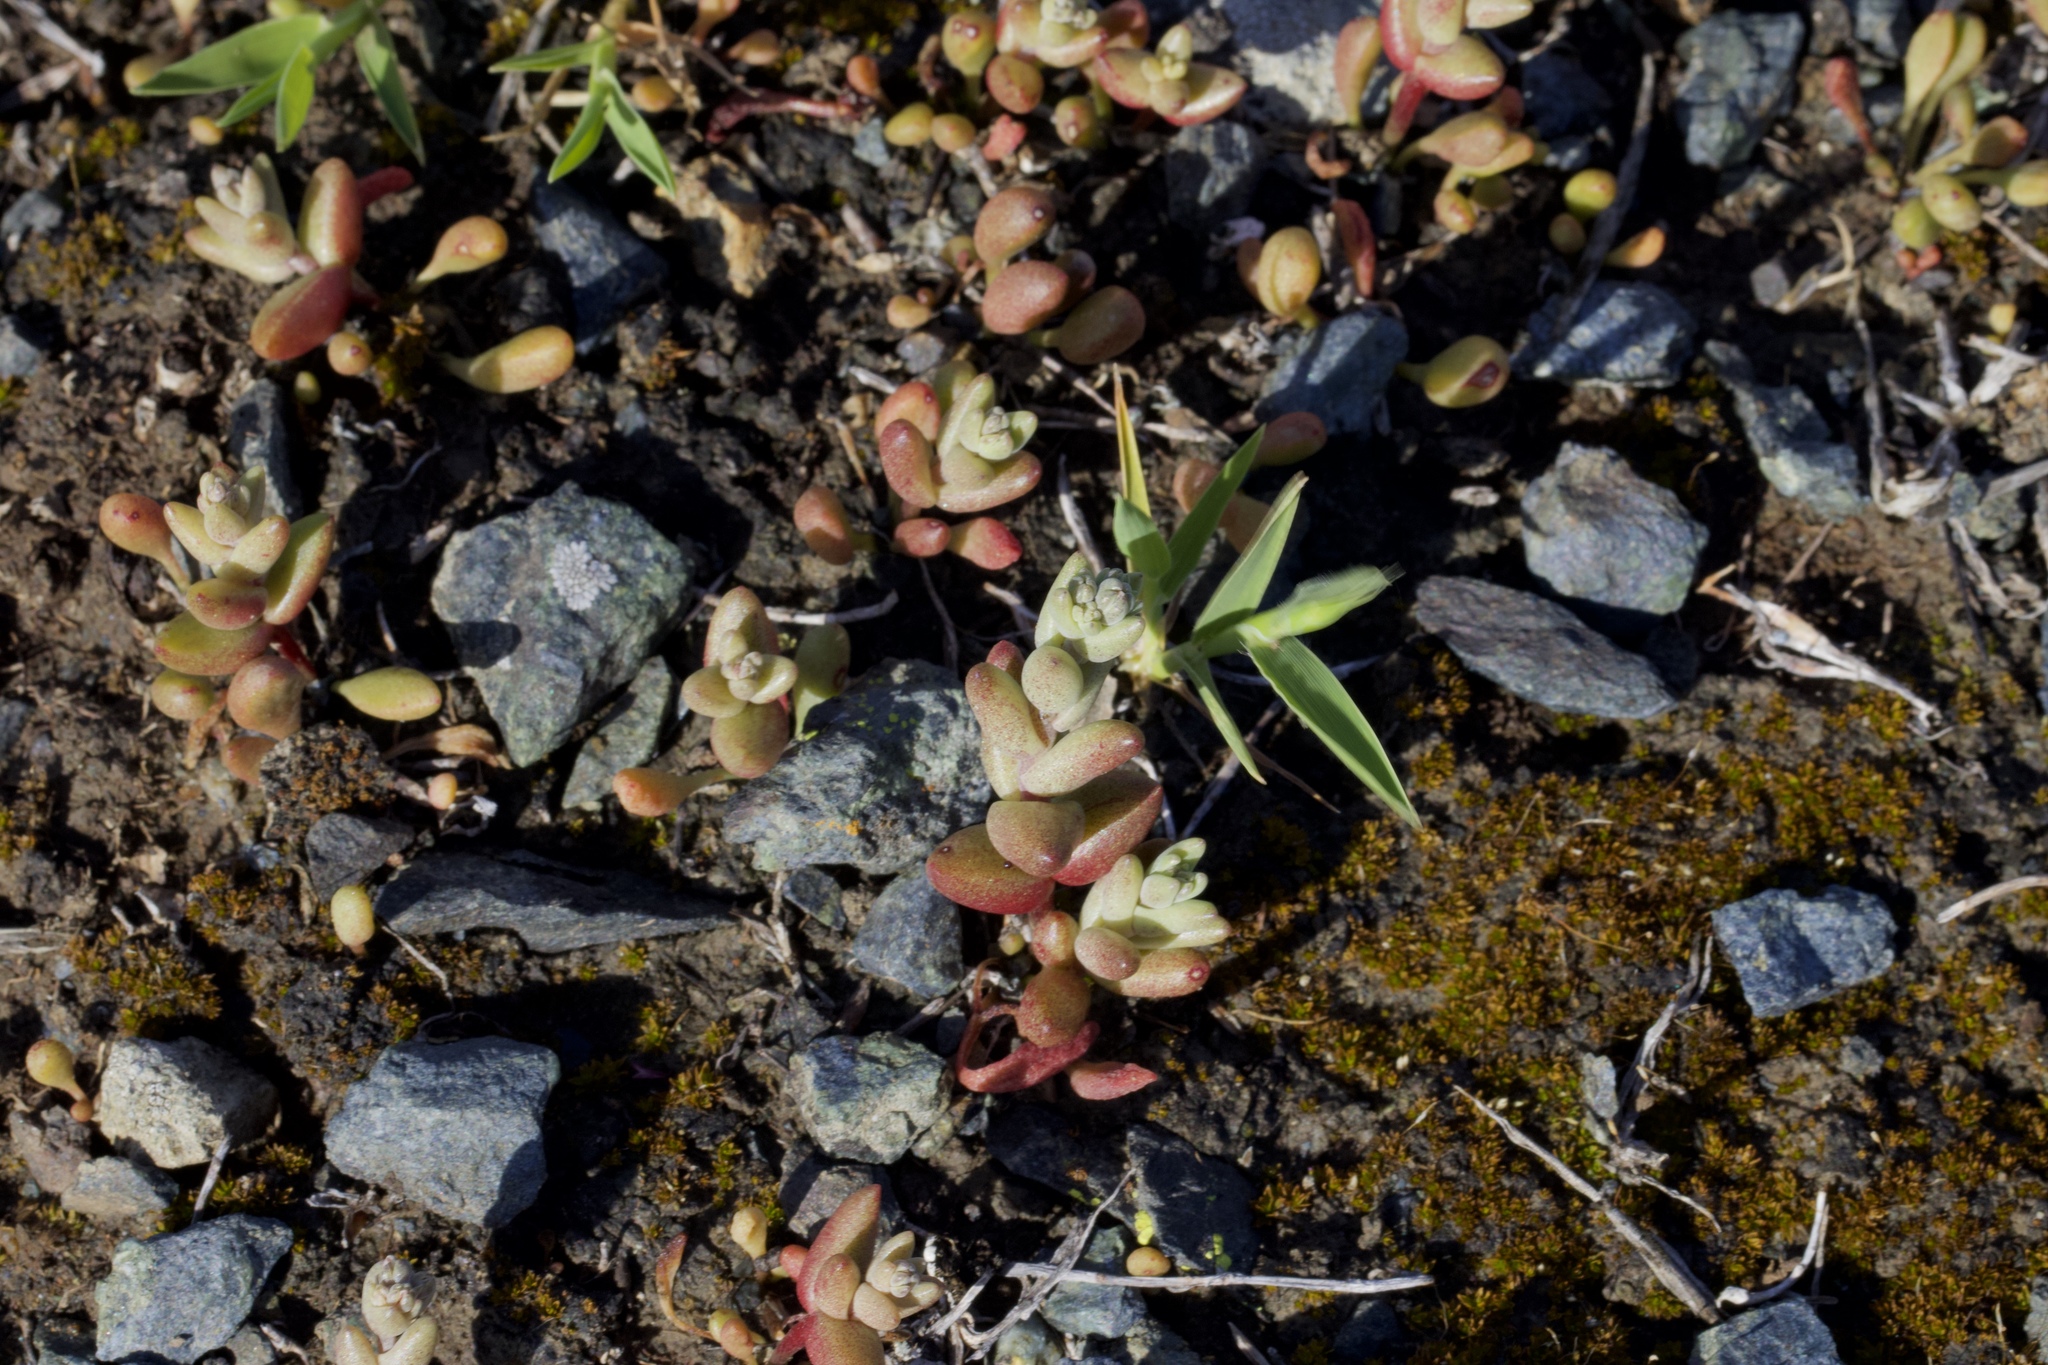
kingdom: Plantae
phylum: Tracheophyta
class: Magnoliopsida
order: Saxifragales
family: Crassulaceae
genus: Dudleya
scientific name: Dudleya blochmaniae
